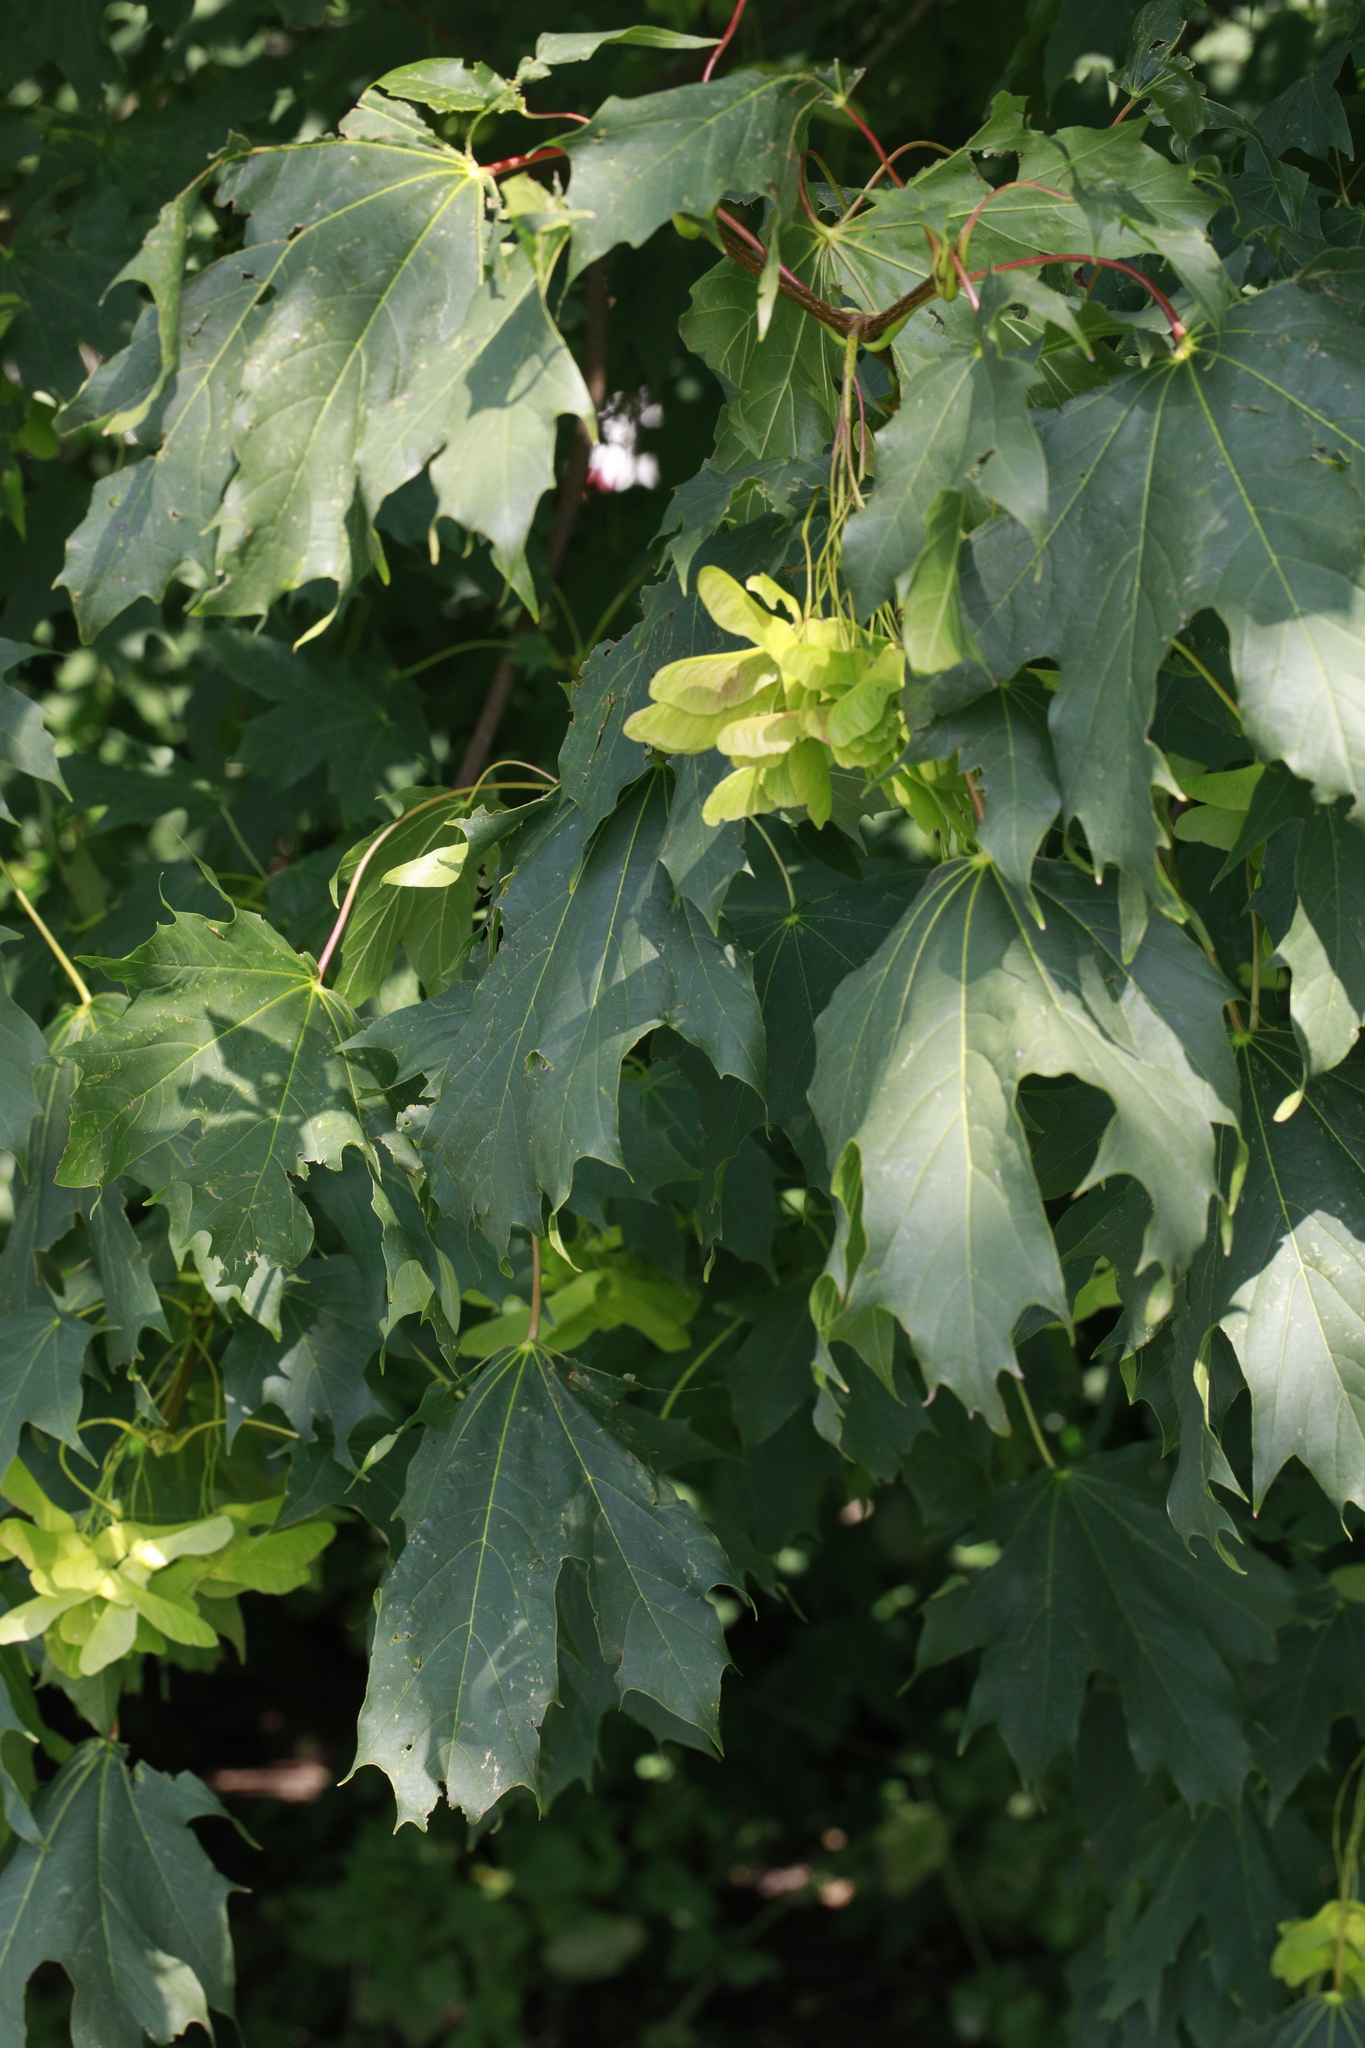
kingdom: Plantae
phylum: Tracheophyta
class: Magnoliopsida
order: Sapindales
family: Sapindaceae
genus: Acer
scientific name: Acer platanoides
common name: Norway maple
